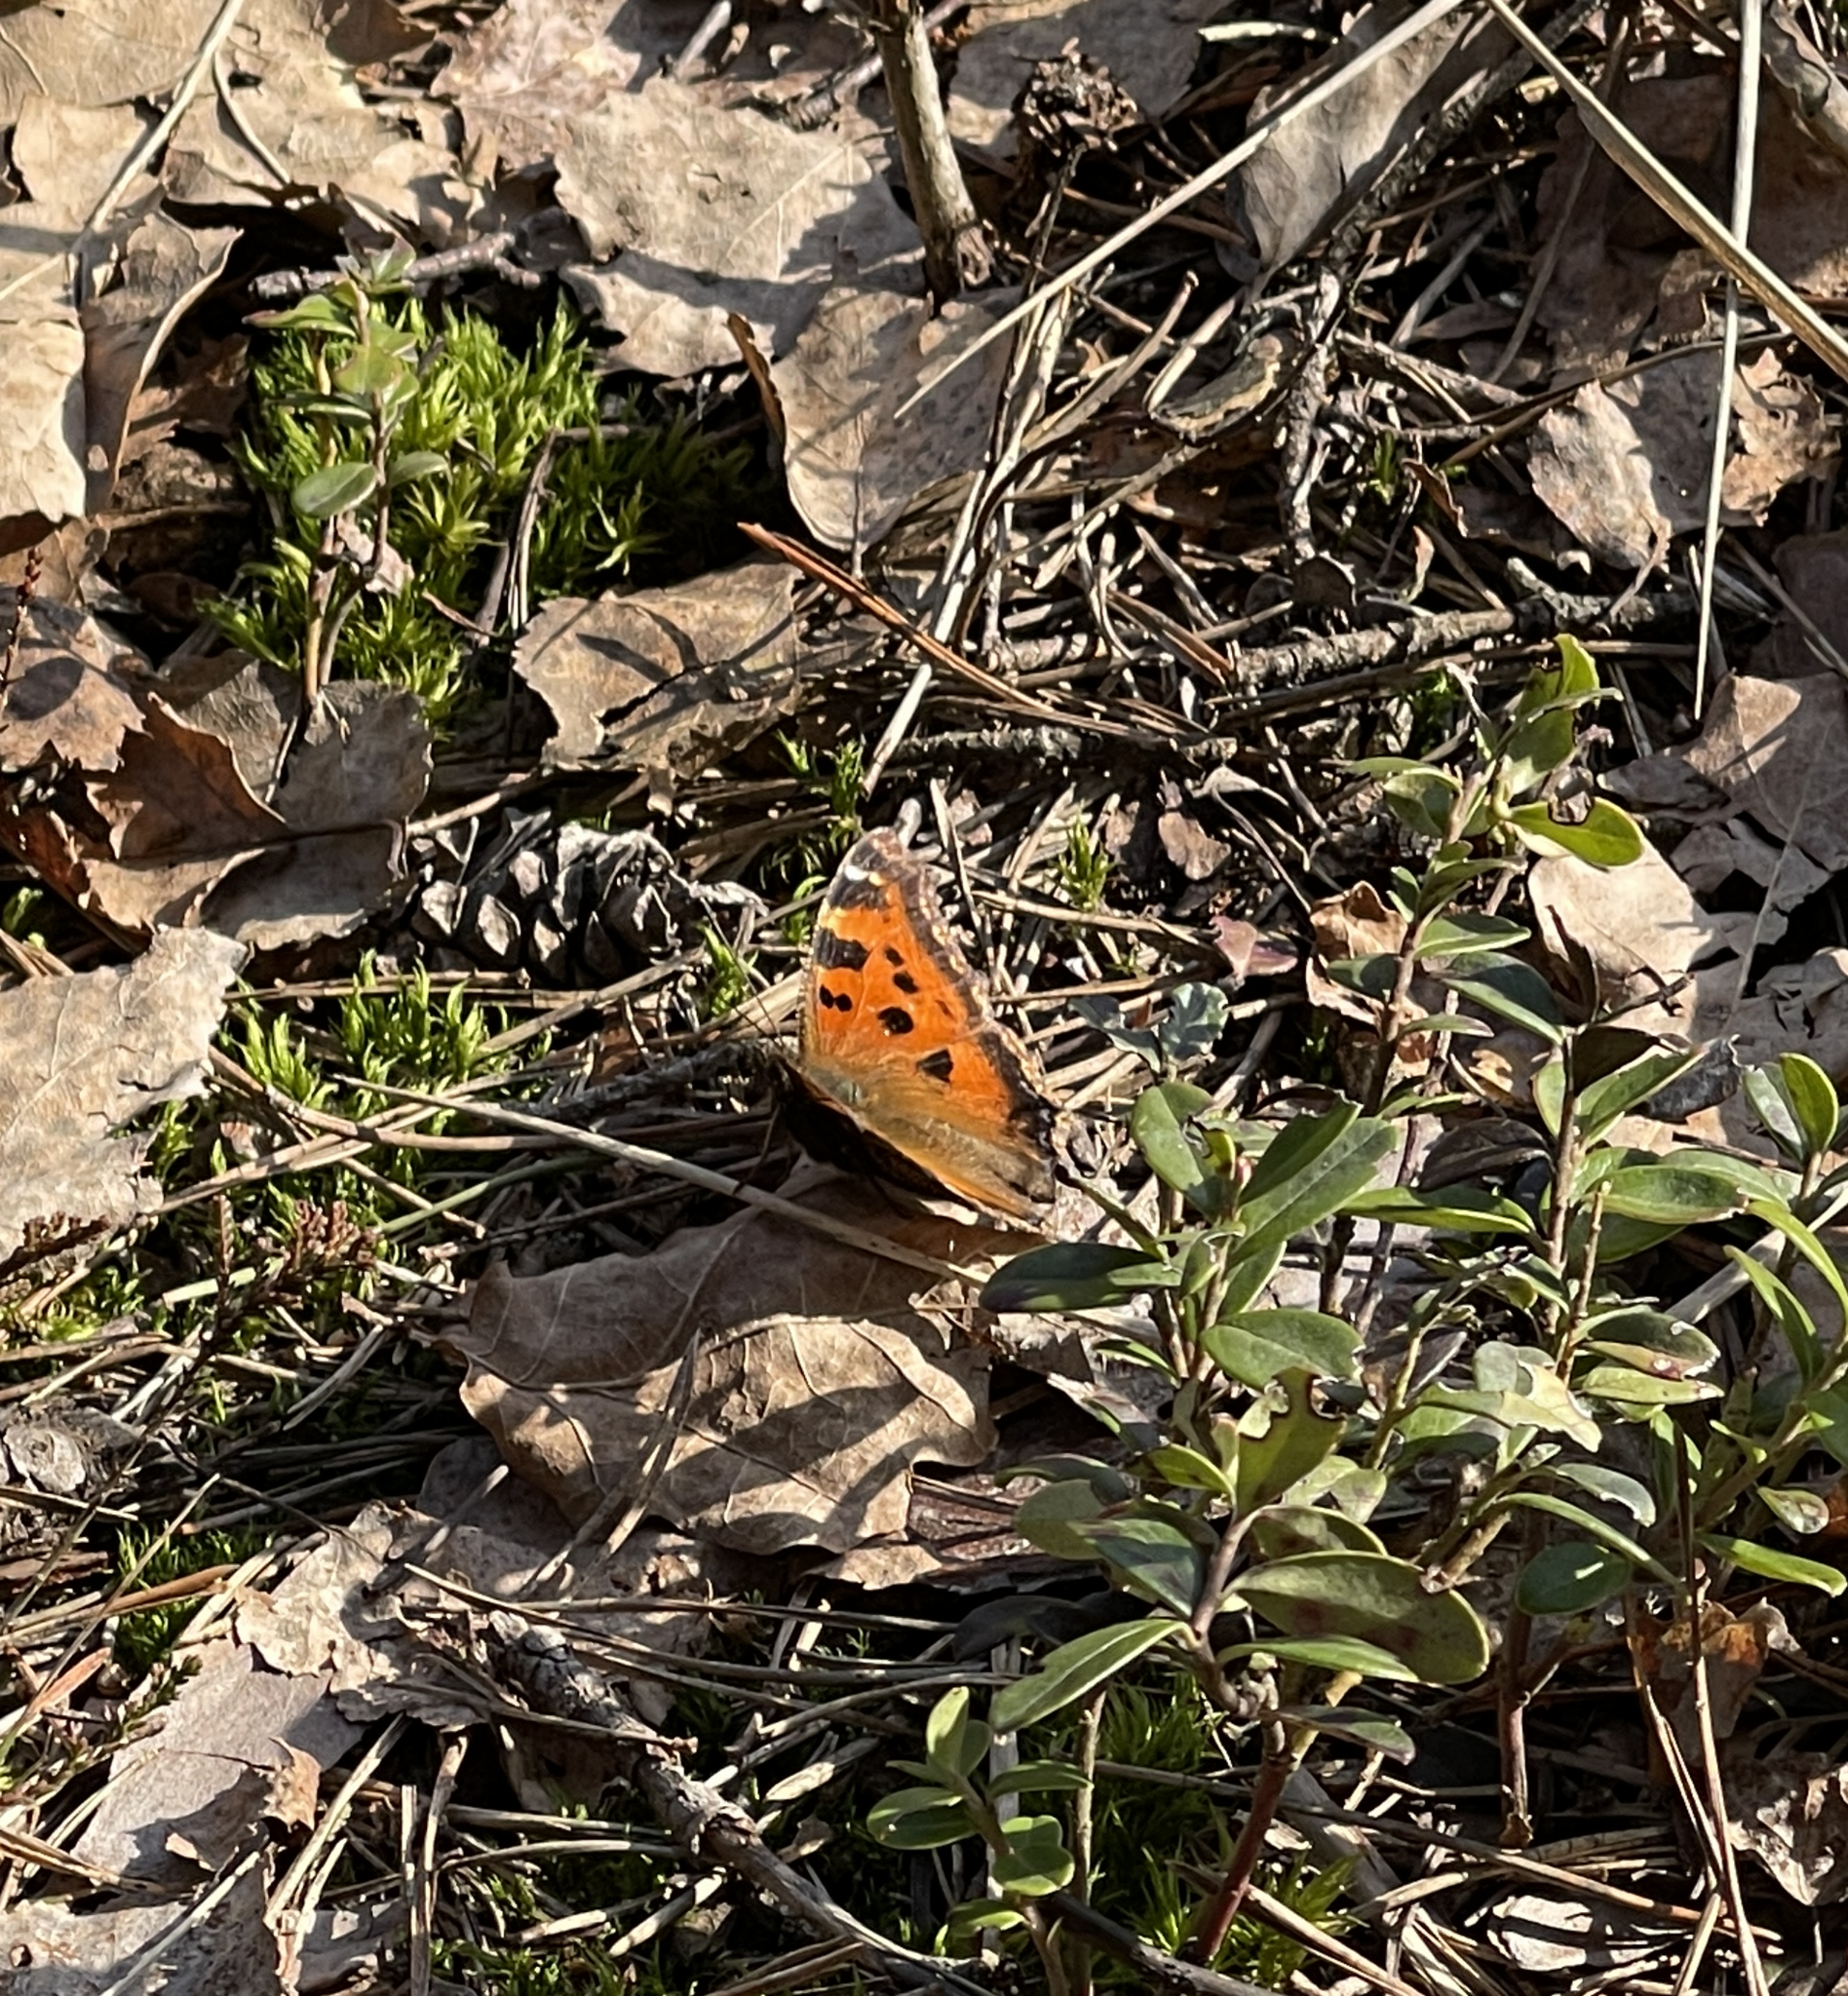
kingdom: Animalia
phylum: Arthropoda
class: Insecta
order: Lepidoptera
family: Nymphalidae
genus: Nymphalis
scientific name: Nymphalis xanthomelas
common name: Scarce tortoiseshell
